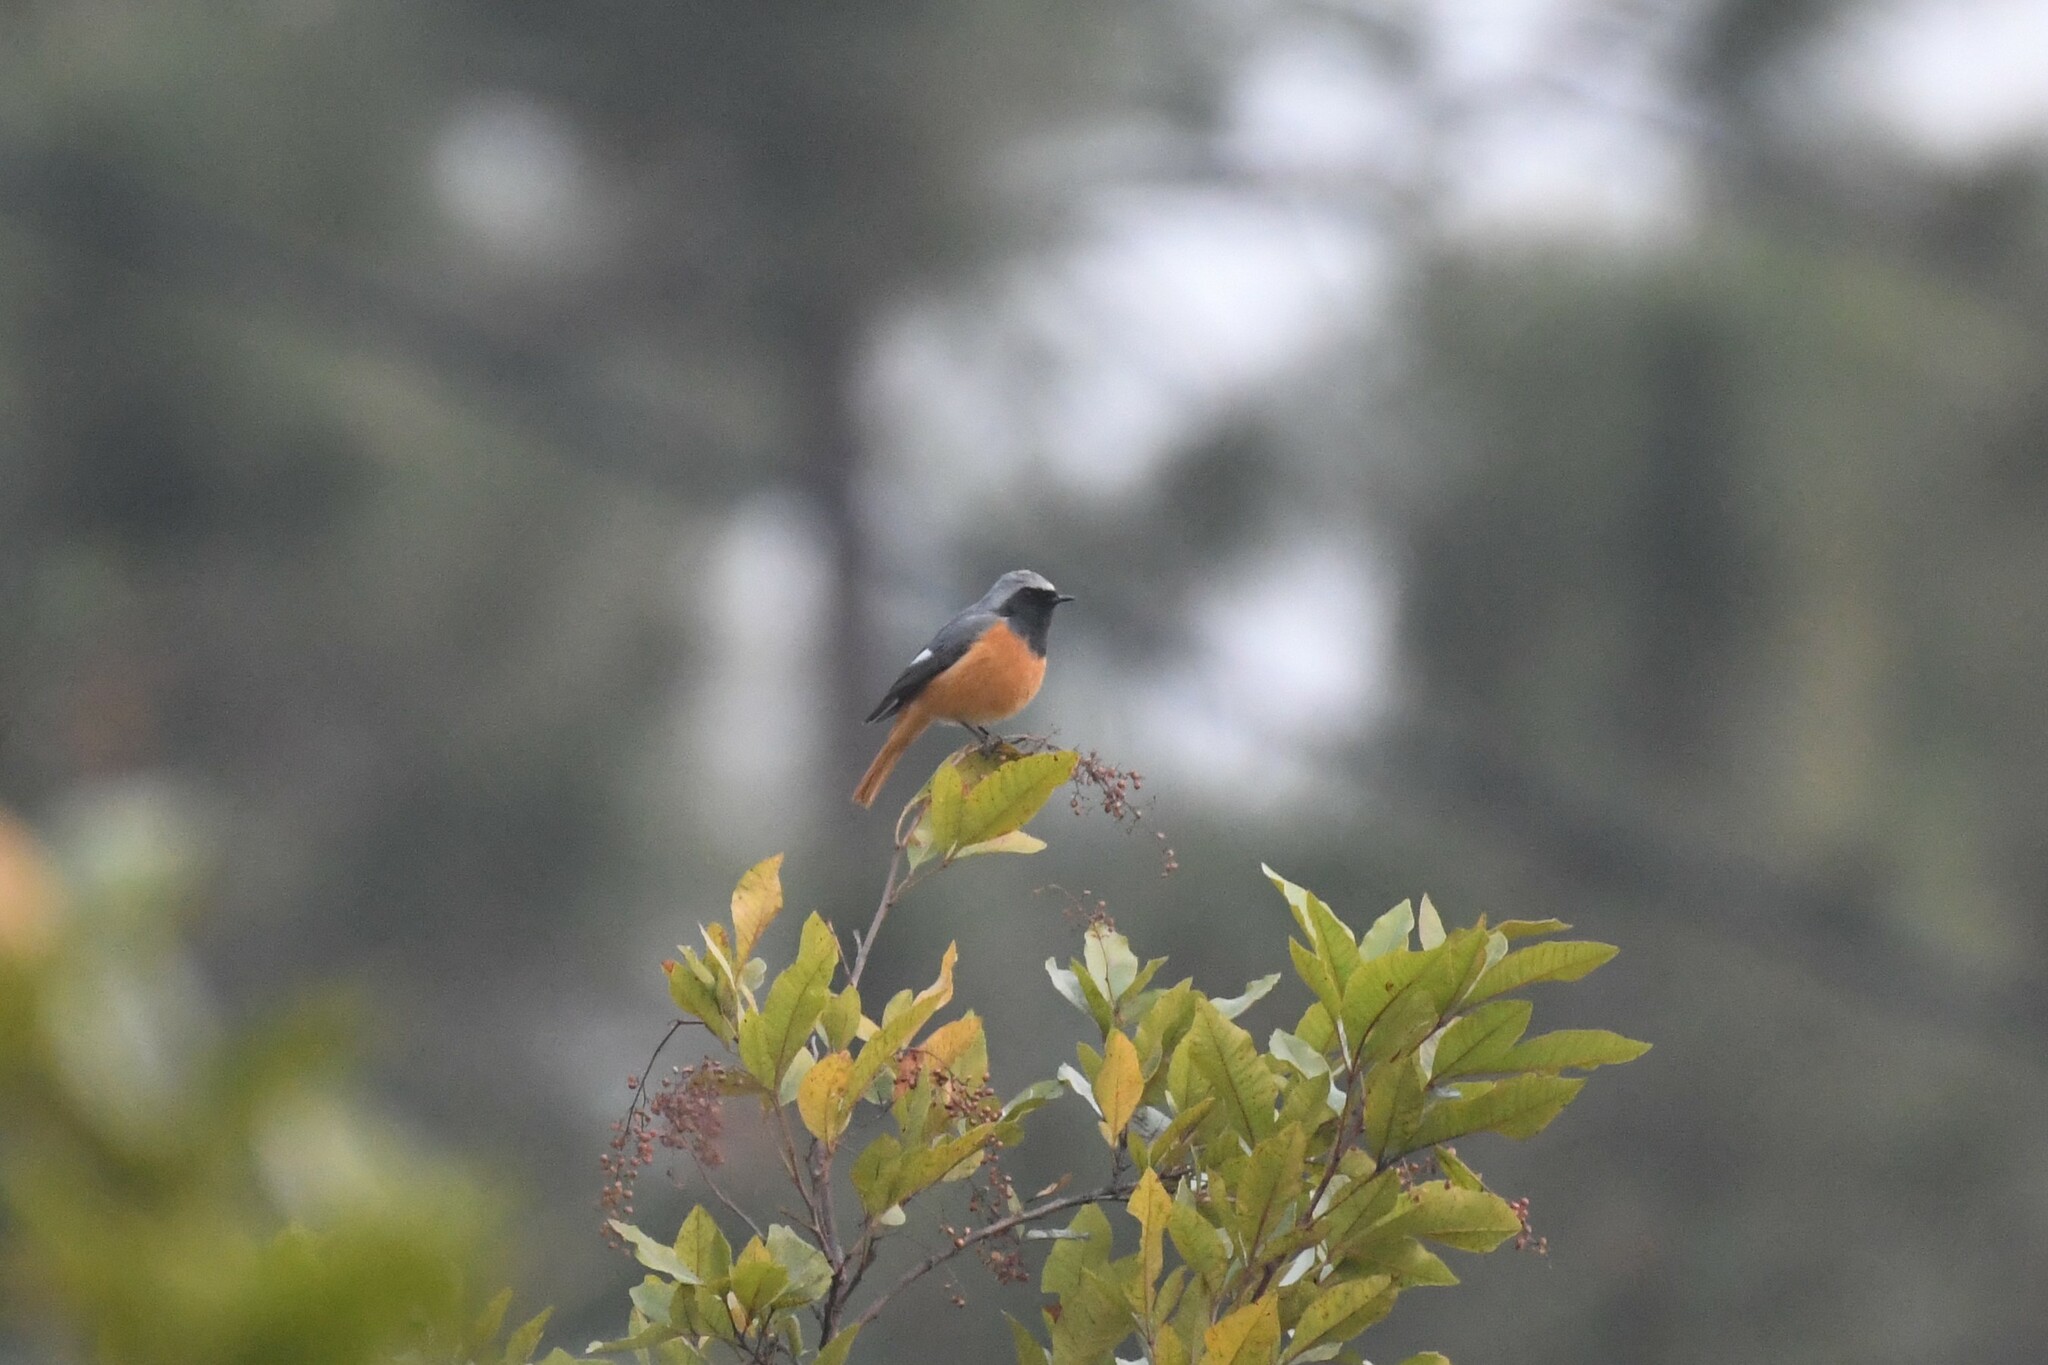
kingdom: Animalia
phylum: Chordata
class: Aves
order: Passeriformes
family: Muscicapidae
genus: Phoenicurus
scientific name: Phoenicurus hodgsoni
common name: Hodgson's redstart
